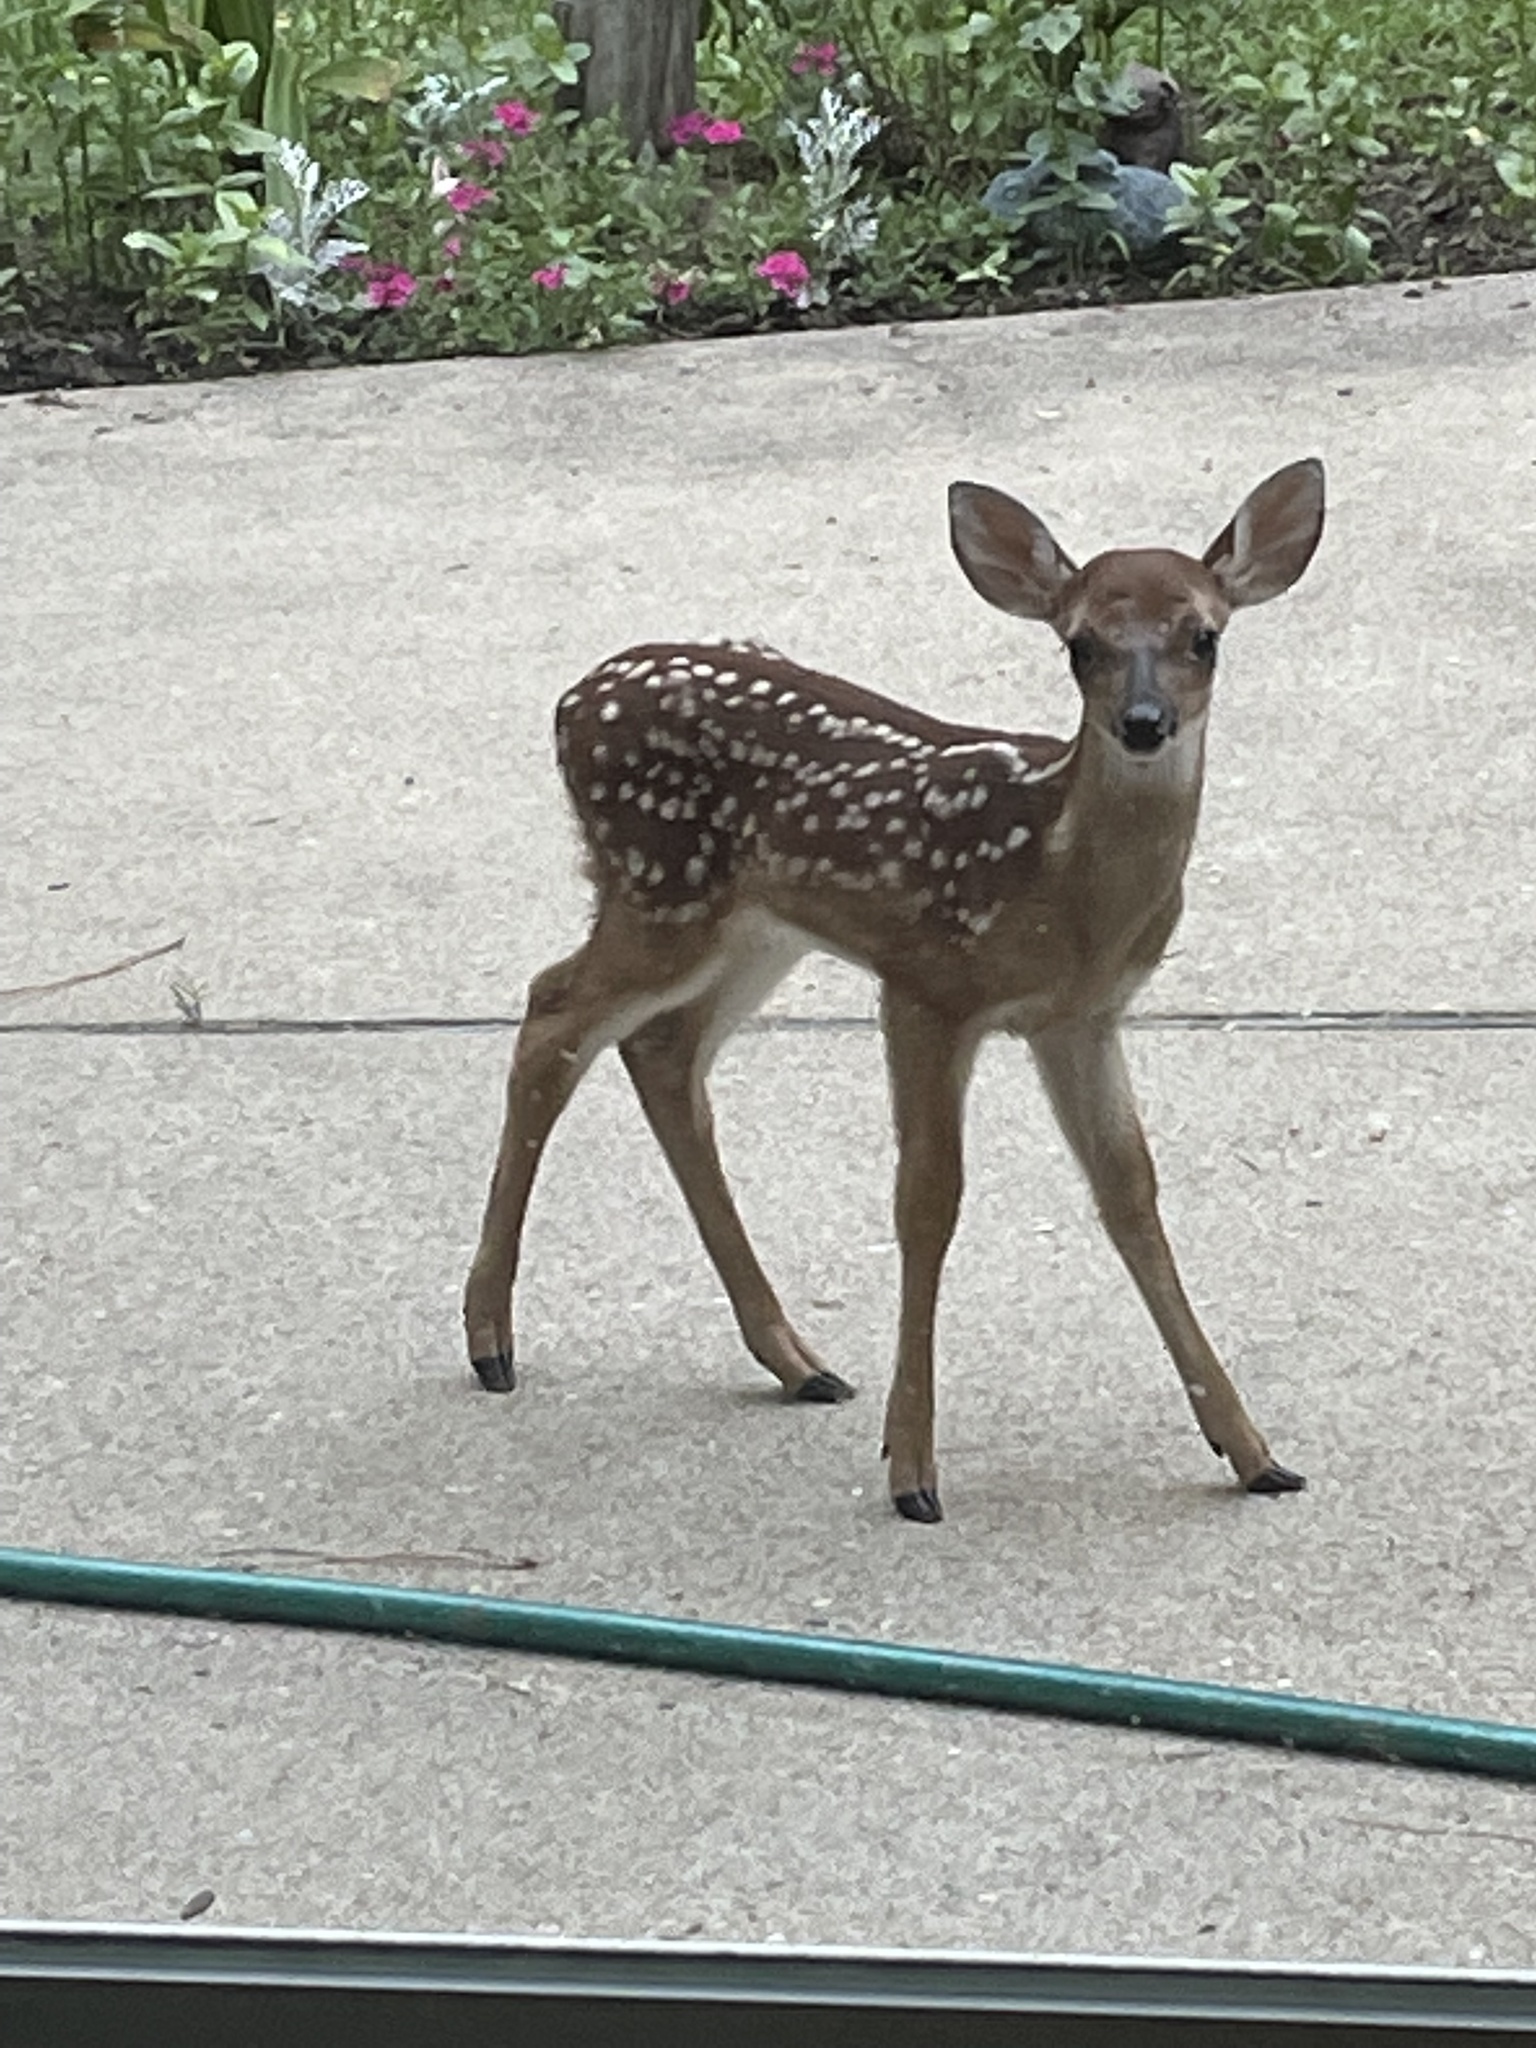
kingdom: Animalia
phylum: Chordata
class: Mammalia
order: Artiodactyla
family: Cervidae
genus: Odocoileus
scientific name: Odocoileus virginianus
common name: White-tailed deer
